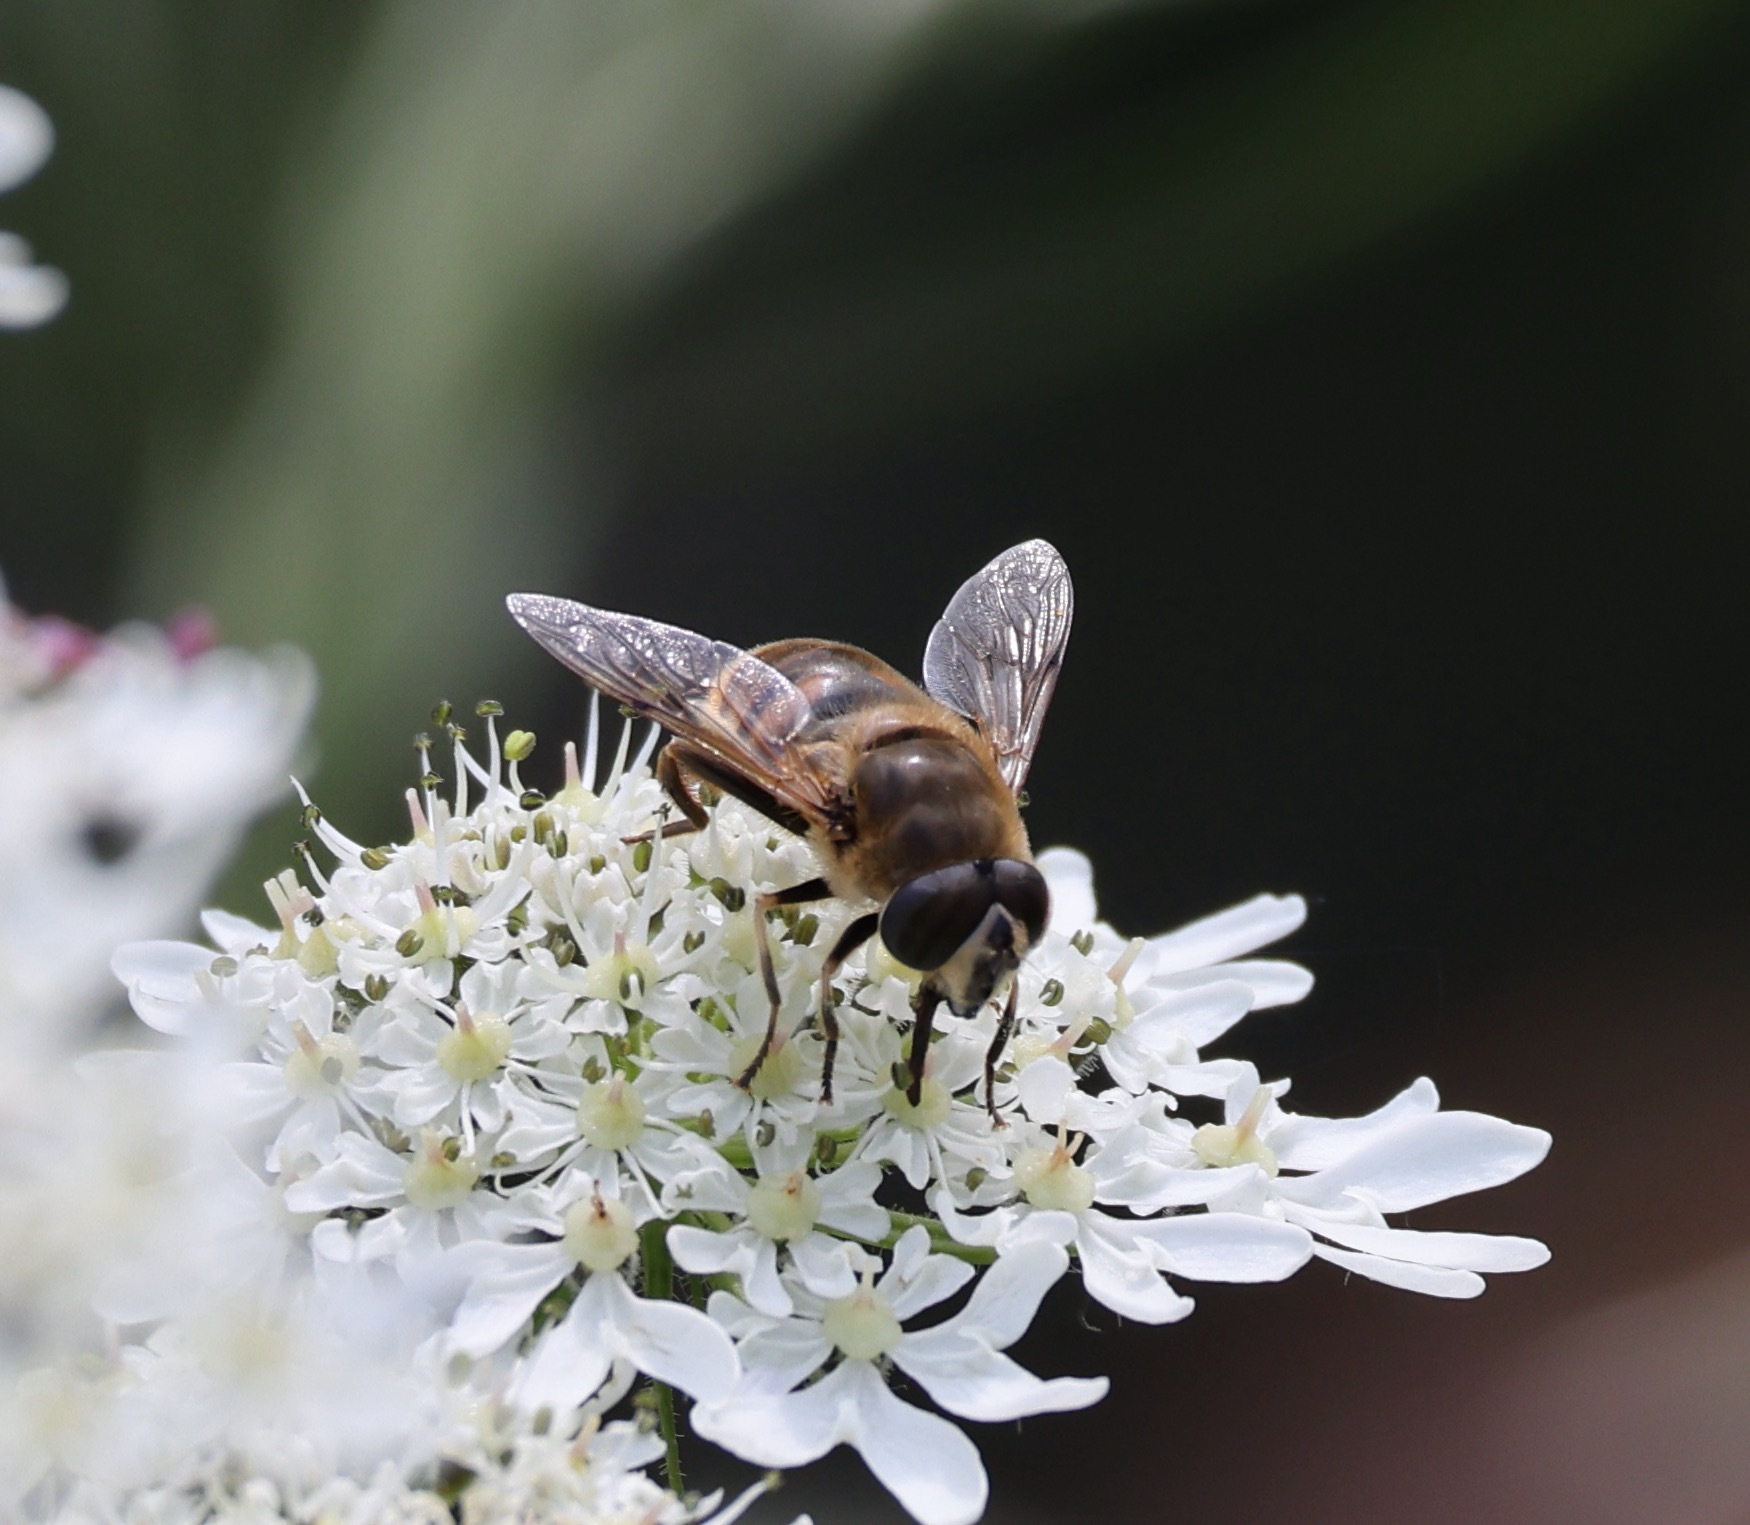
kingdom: Animalia
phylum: Arthropoda
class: Insecta
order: Diptera
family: Syrphidae
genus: Eristalis
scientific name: Eristalis tenax
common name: Drone fly
